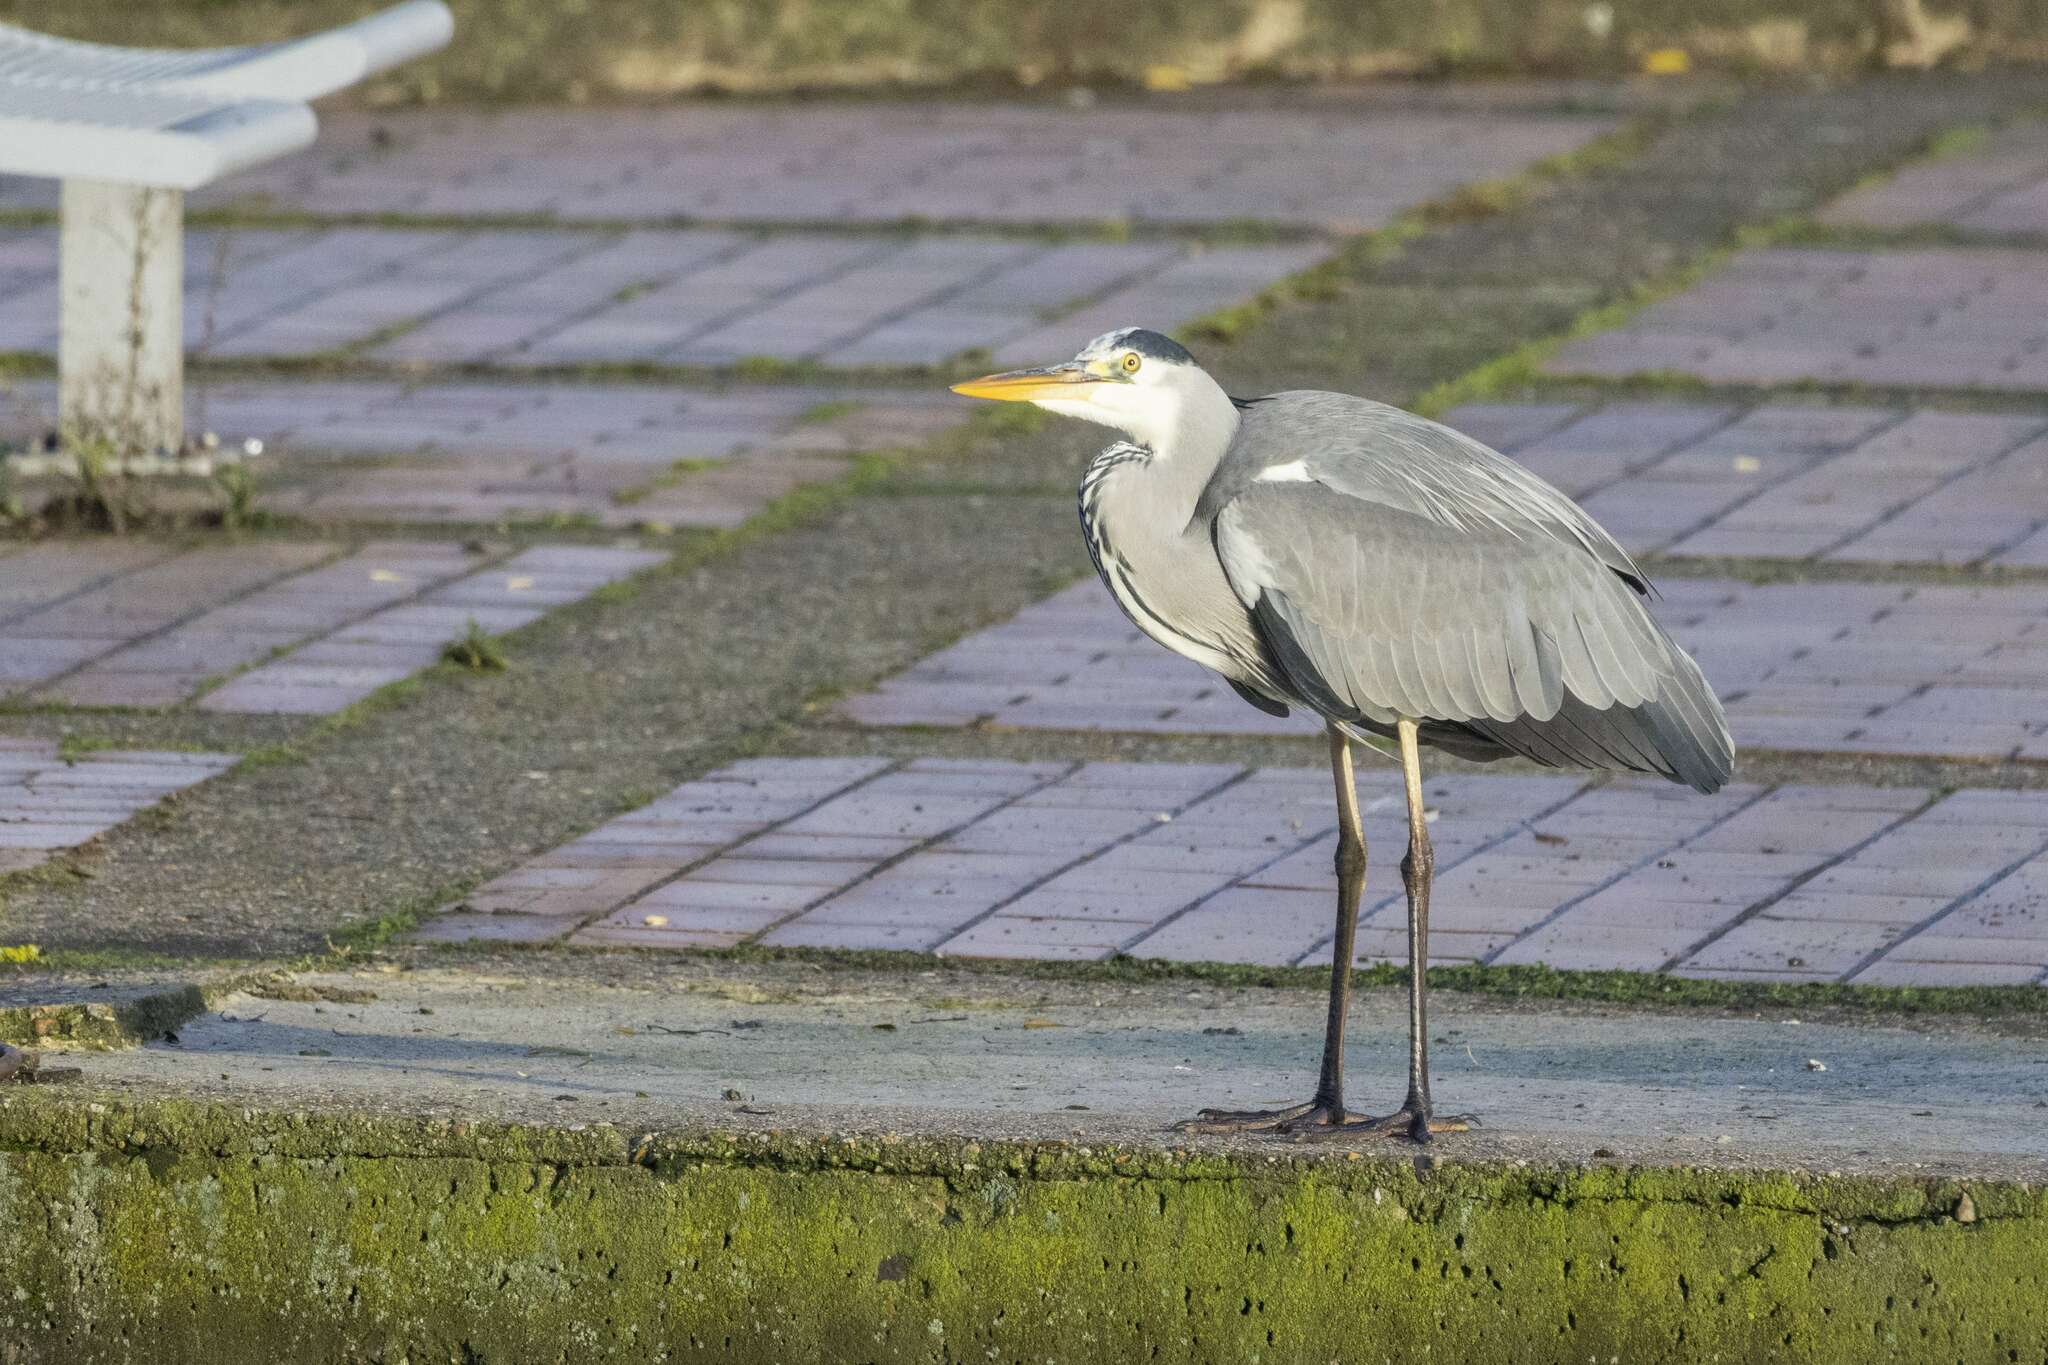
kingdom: Animalia
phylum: Chordata
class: Aves
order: Pelecaniformes
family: Ardeidae
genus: Ardea
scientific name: Ardea cinerea
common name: Grey heron
